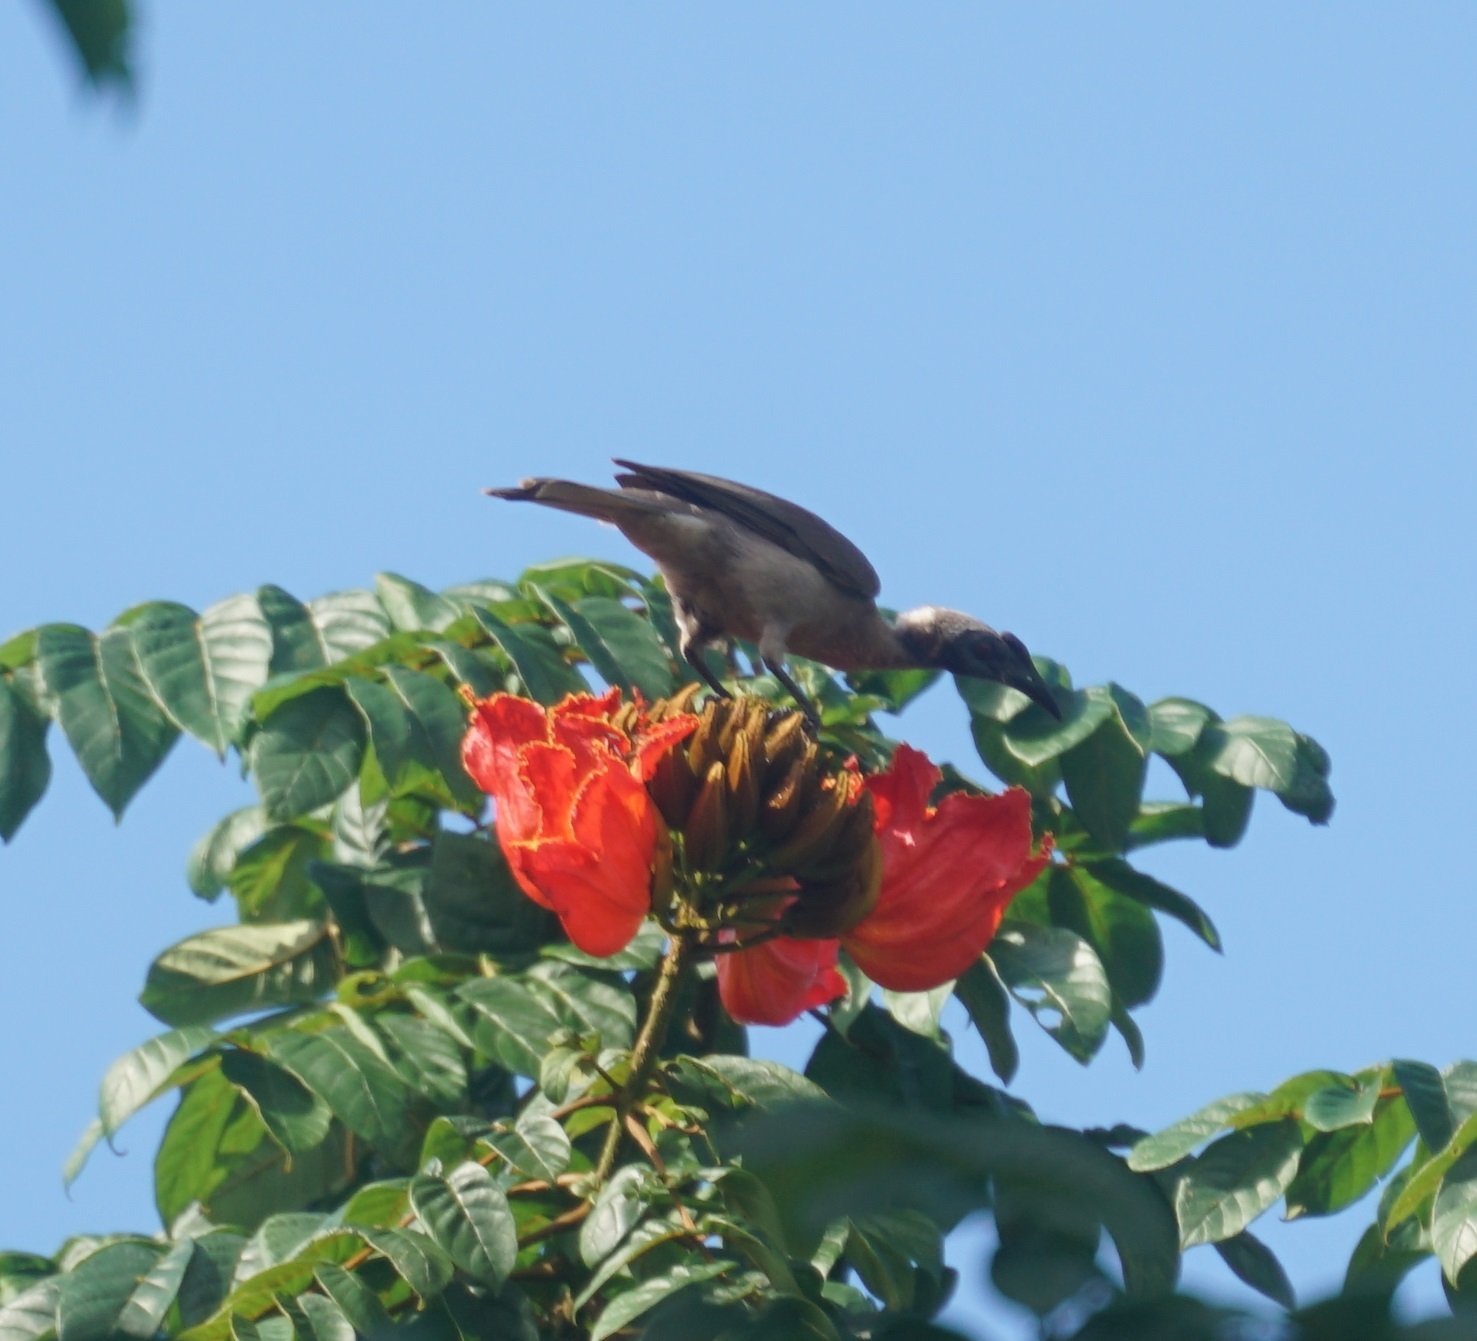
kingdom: Plantae
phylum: Tracheophyta
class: Magnoliopsida
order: Lamiales
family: Bignoniaceae
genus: Spathodea
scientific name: Spathodea campanulata
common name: African tuliptree
